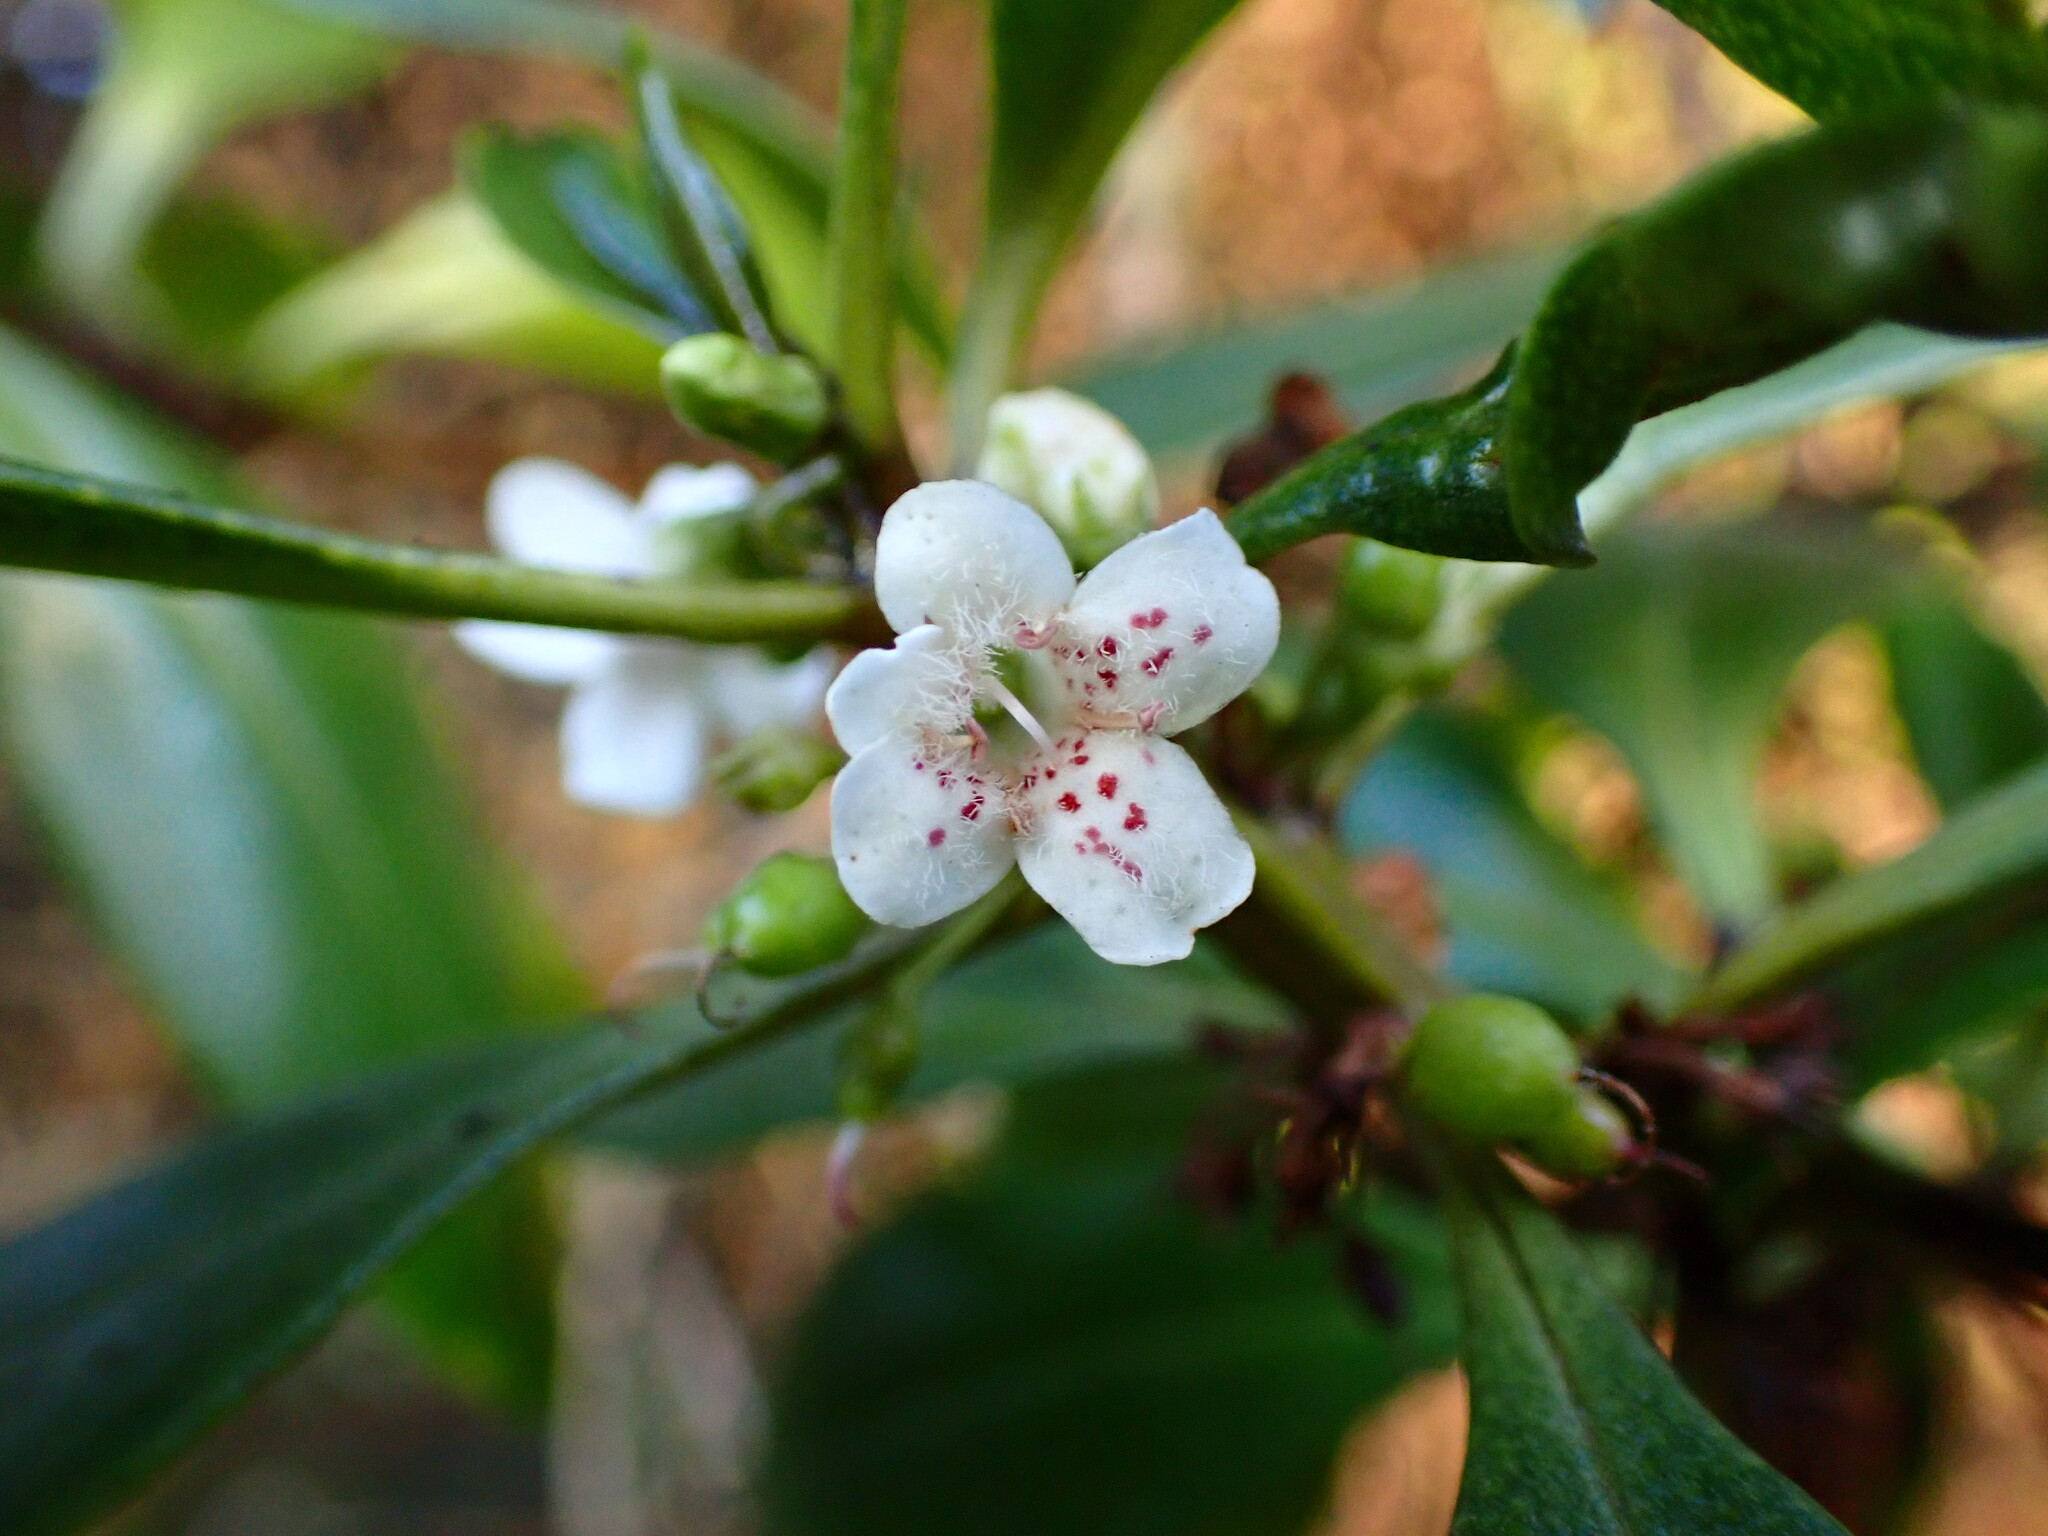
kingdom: Plantae
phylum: Tracheophyta
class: Magnoliopsida
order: Lamiales
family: Scrophulariaceae
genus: Myoporum
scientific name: Myoporum laetum
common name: Ngaio tree
